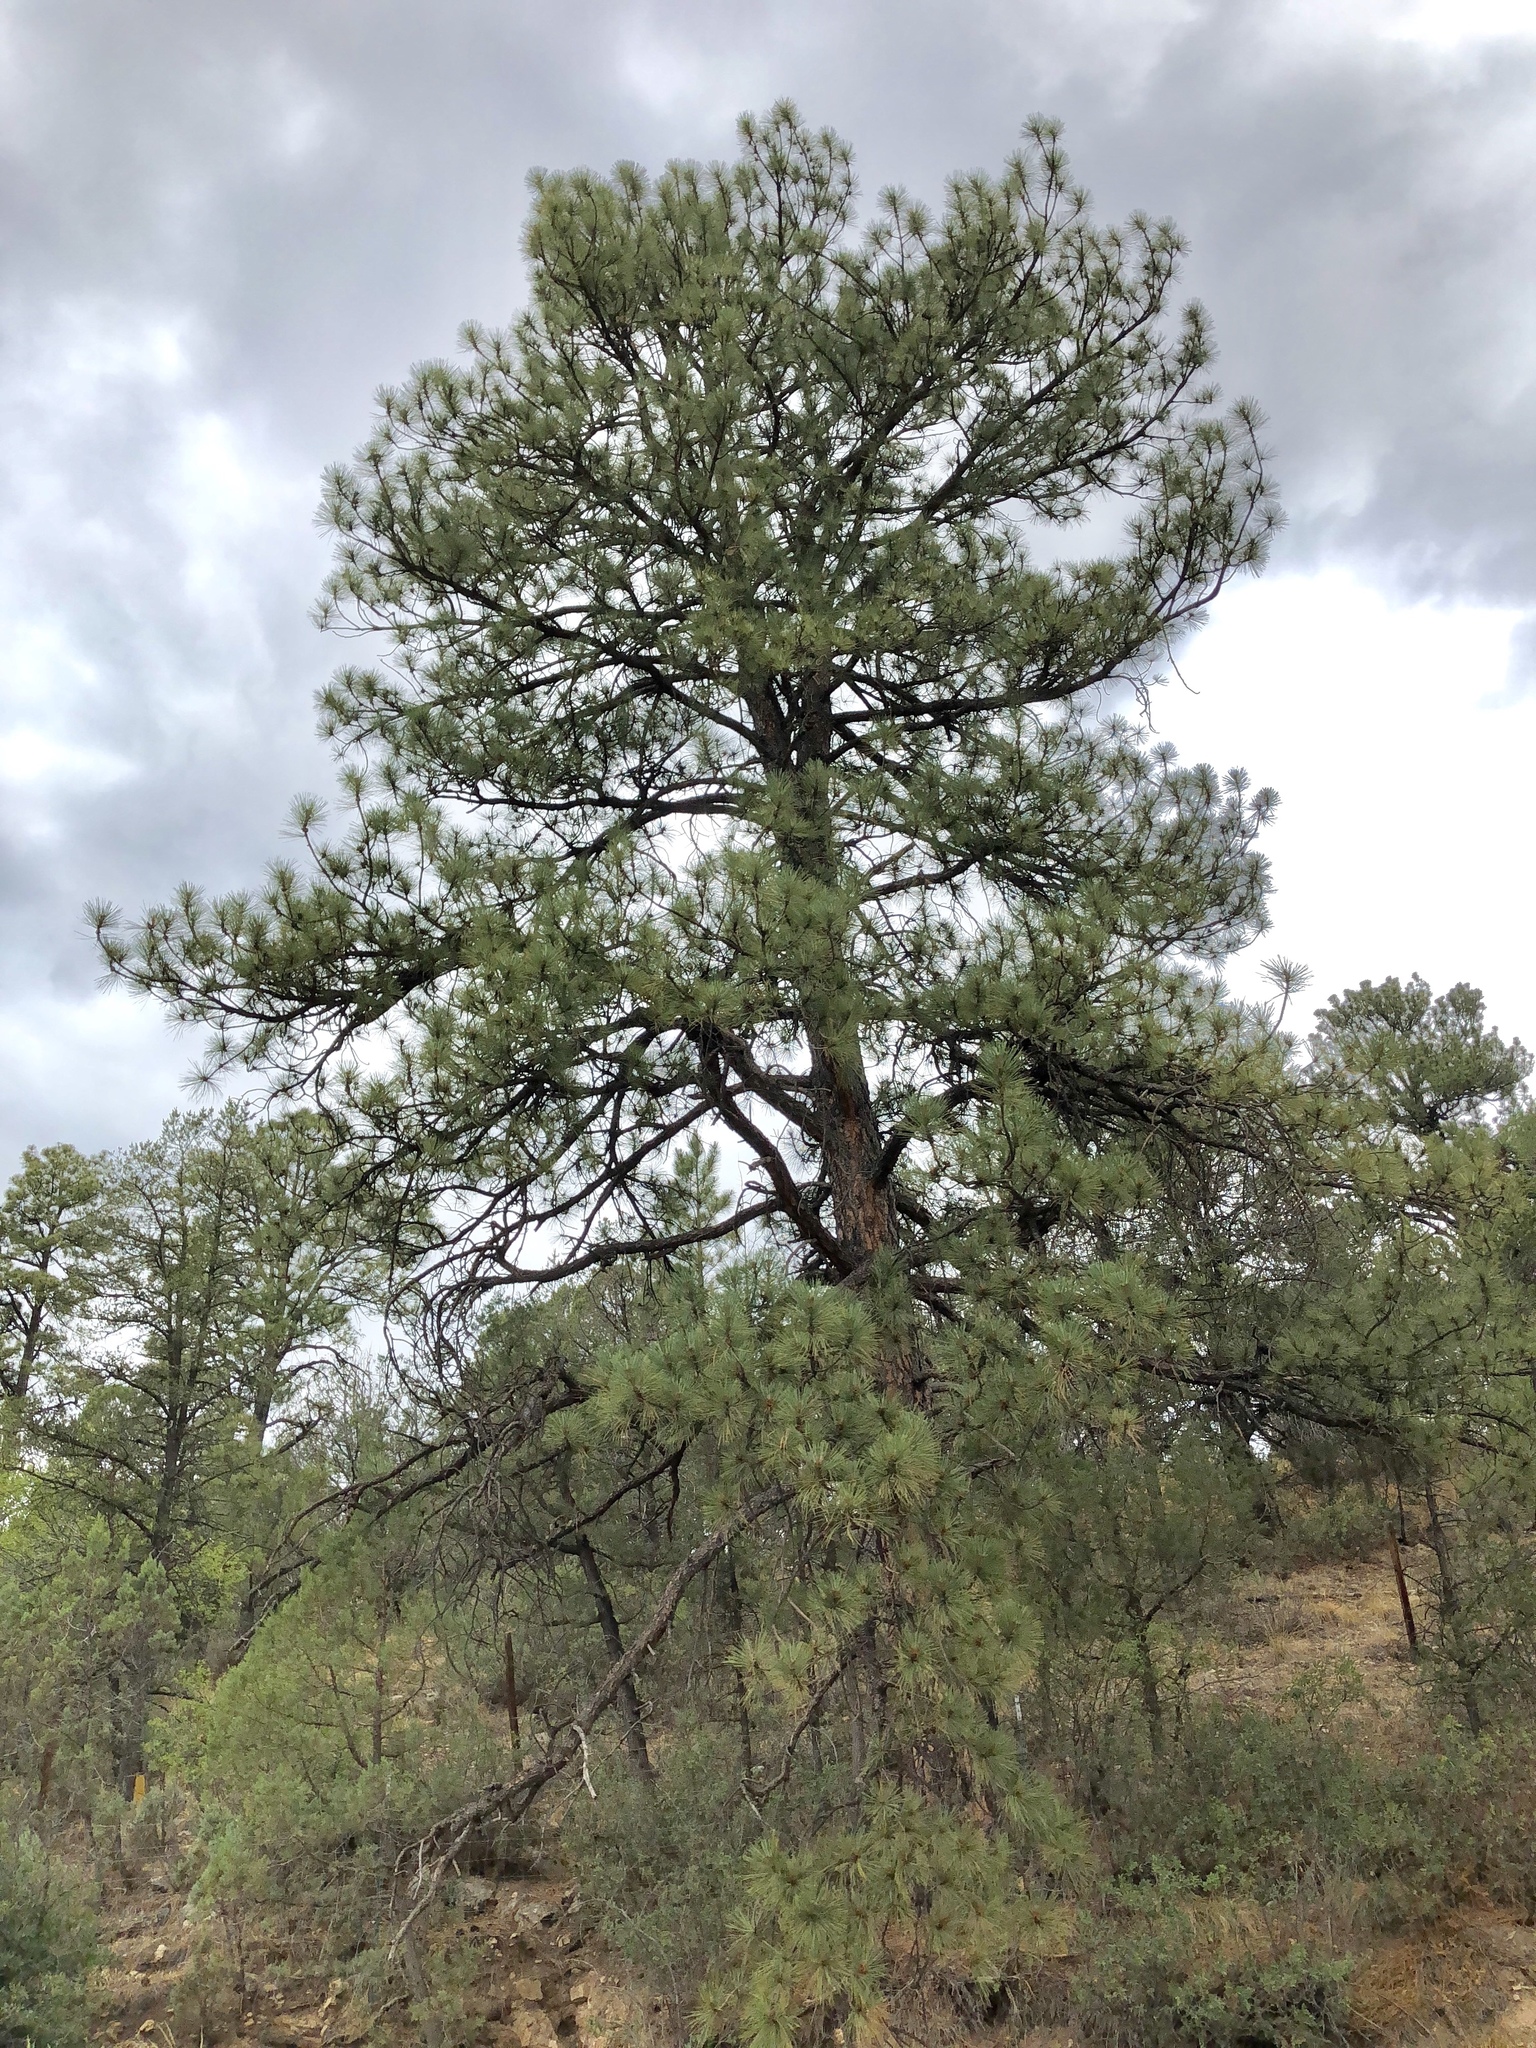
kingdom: Plantae
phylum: Tracheophyta
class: Pinopsida
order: Pinales
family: Pinaceae
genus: Pinus
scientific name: Pinus ponderosa
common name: Western yellow-pine
